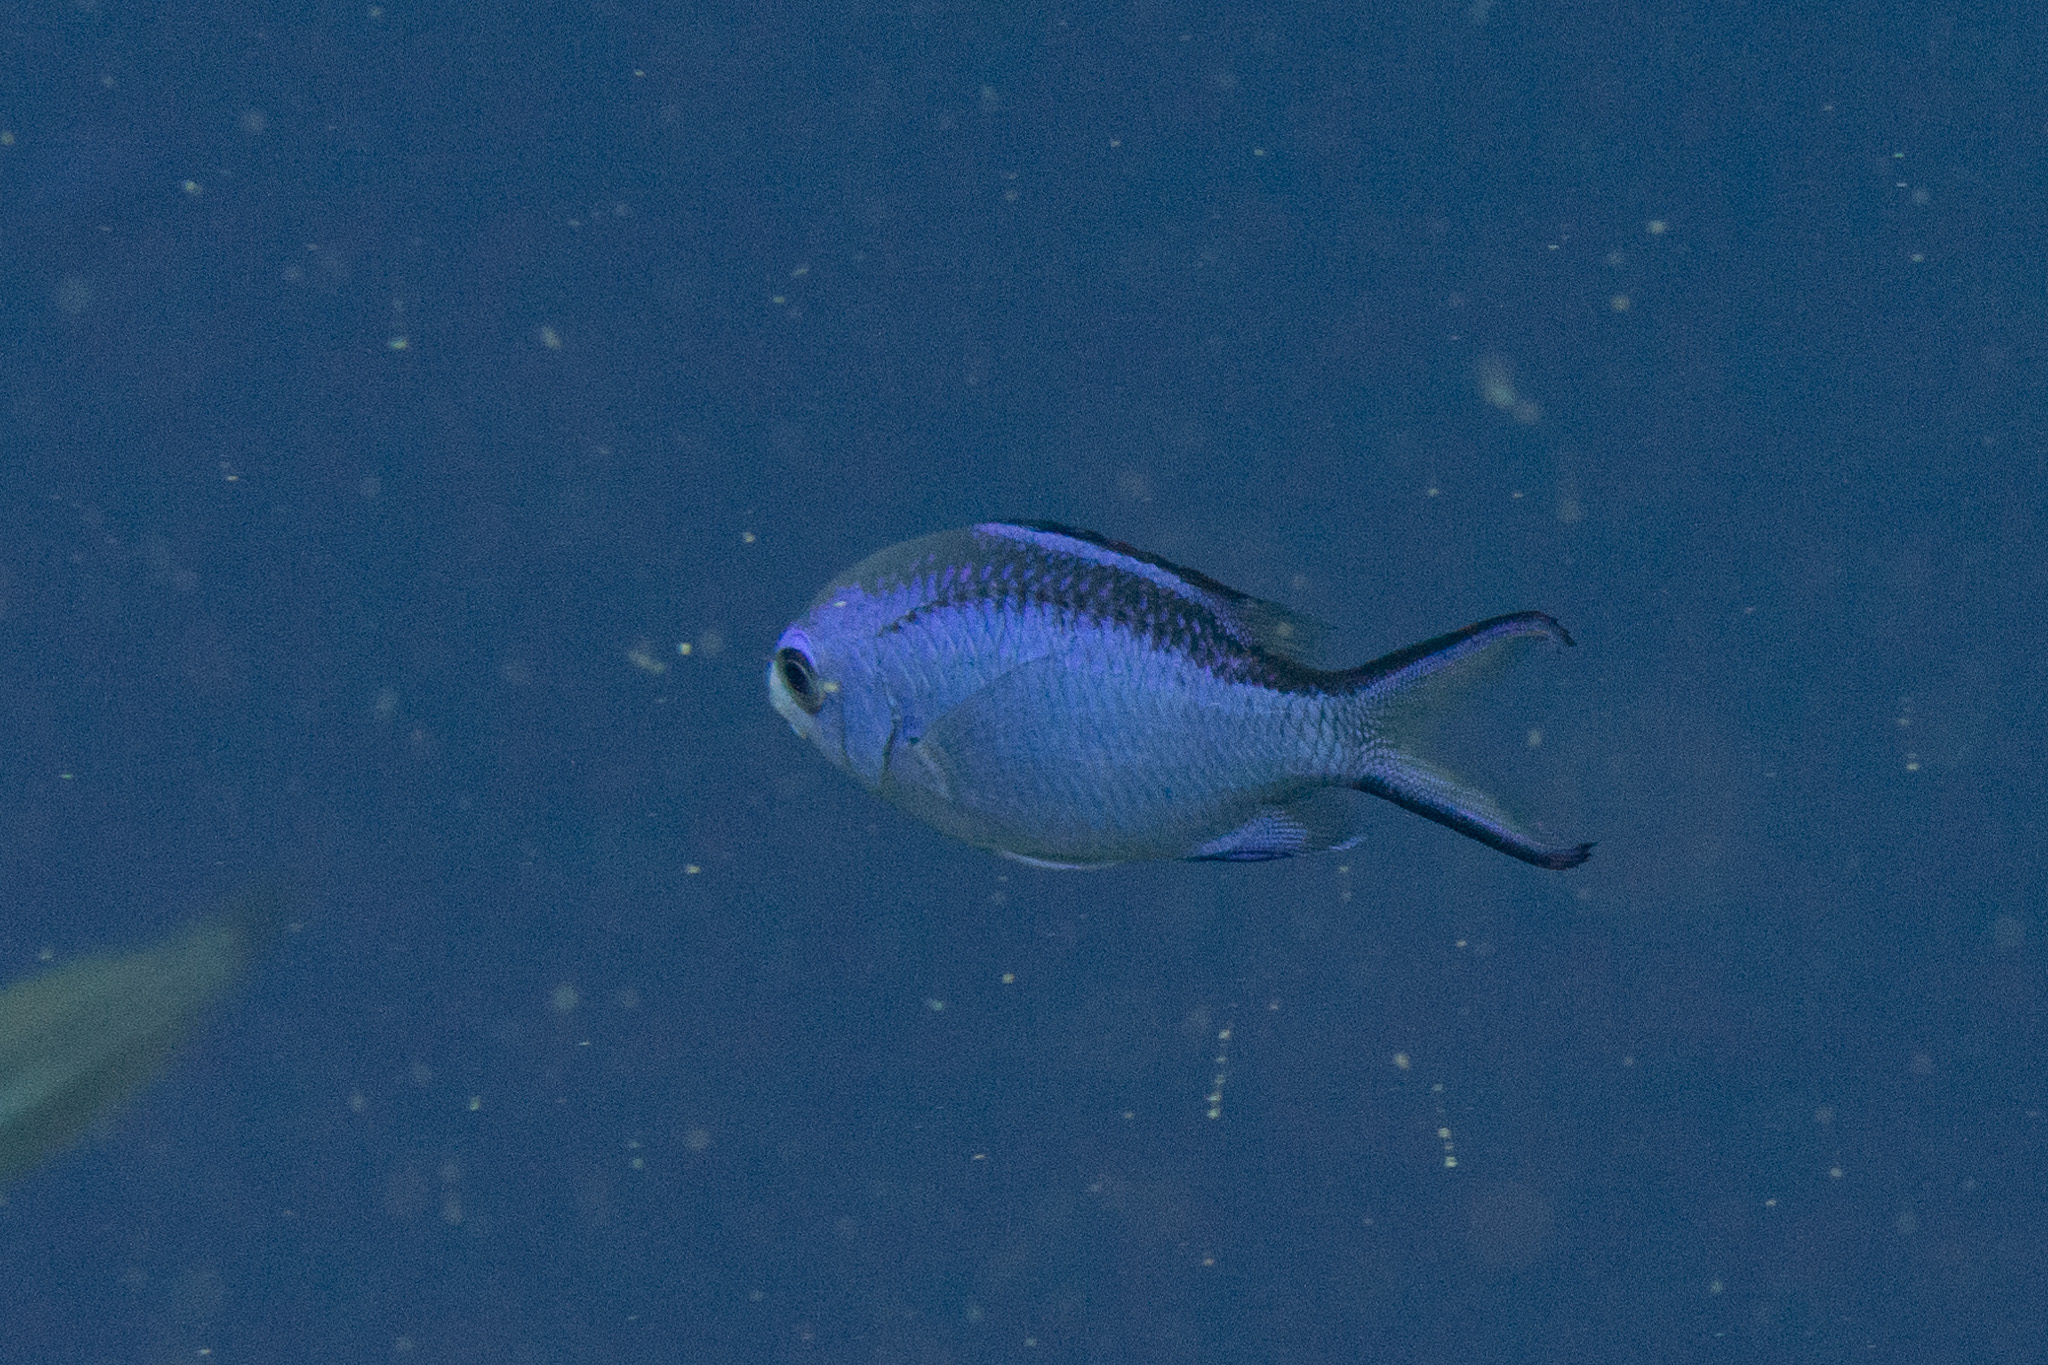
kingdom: Animalia
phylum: Chordata
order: Perciformes
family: Pomacentridae
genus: Chromis
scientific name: Chromis cyanea
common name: Blue chromis
